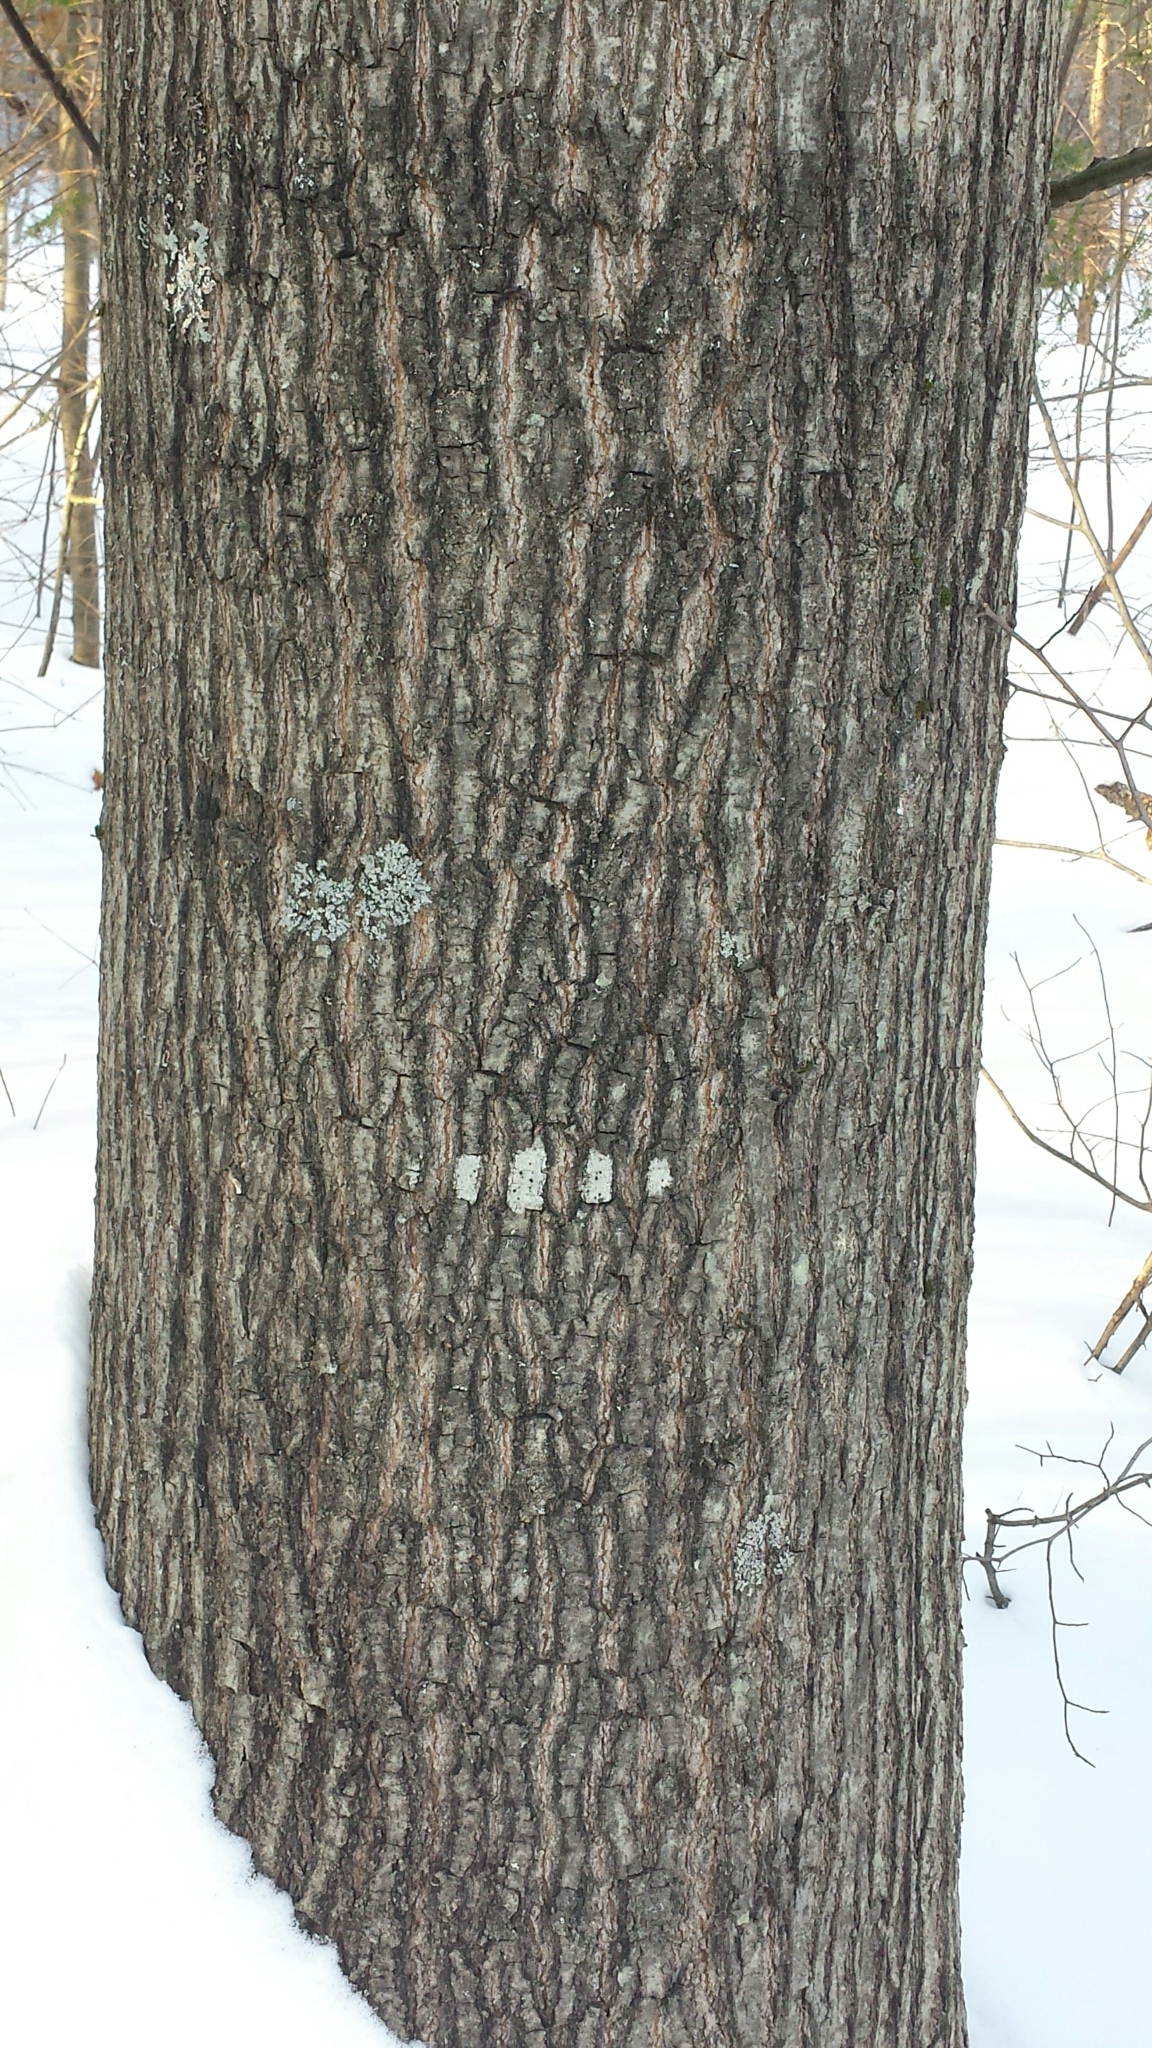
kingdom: Plantae
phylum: Tracheophyta
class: Magnoliopsida
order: Fagales
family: Fagaceae
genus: Quercus
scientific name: Quercus rubra
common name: Red oak
